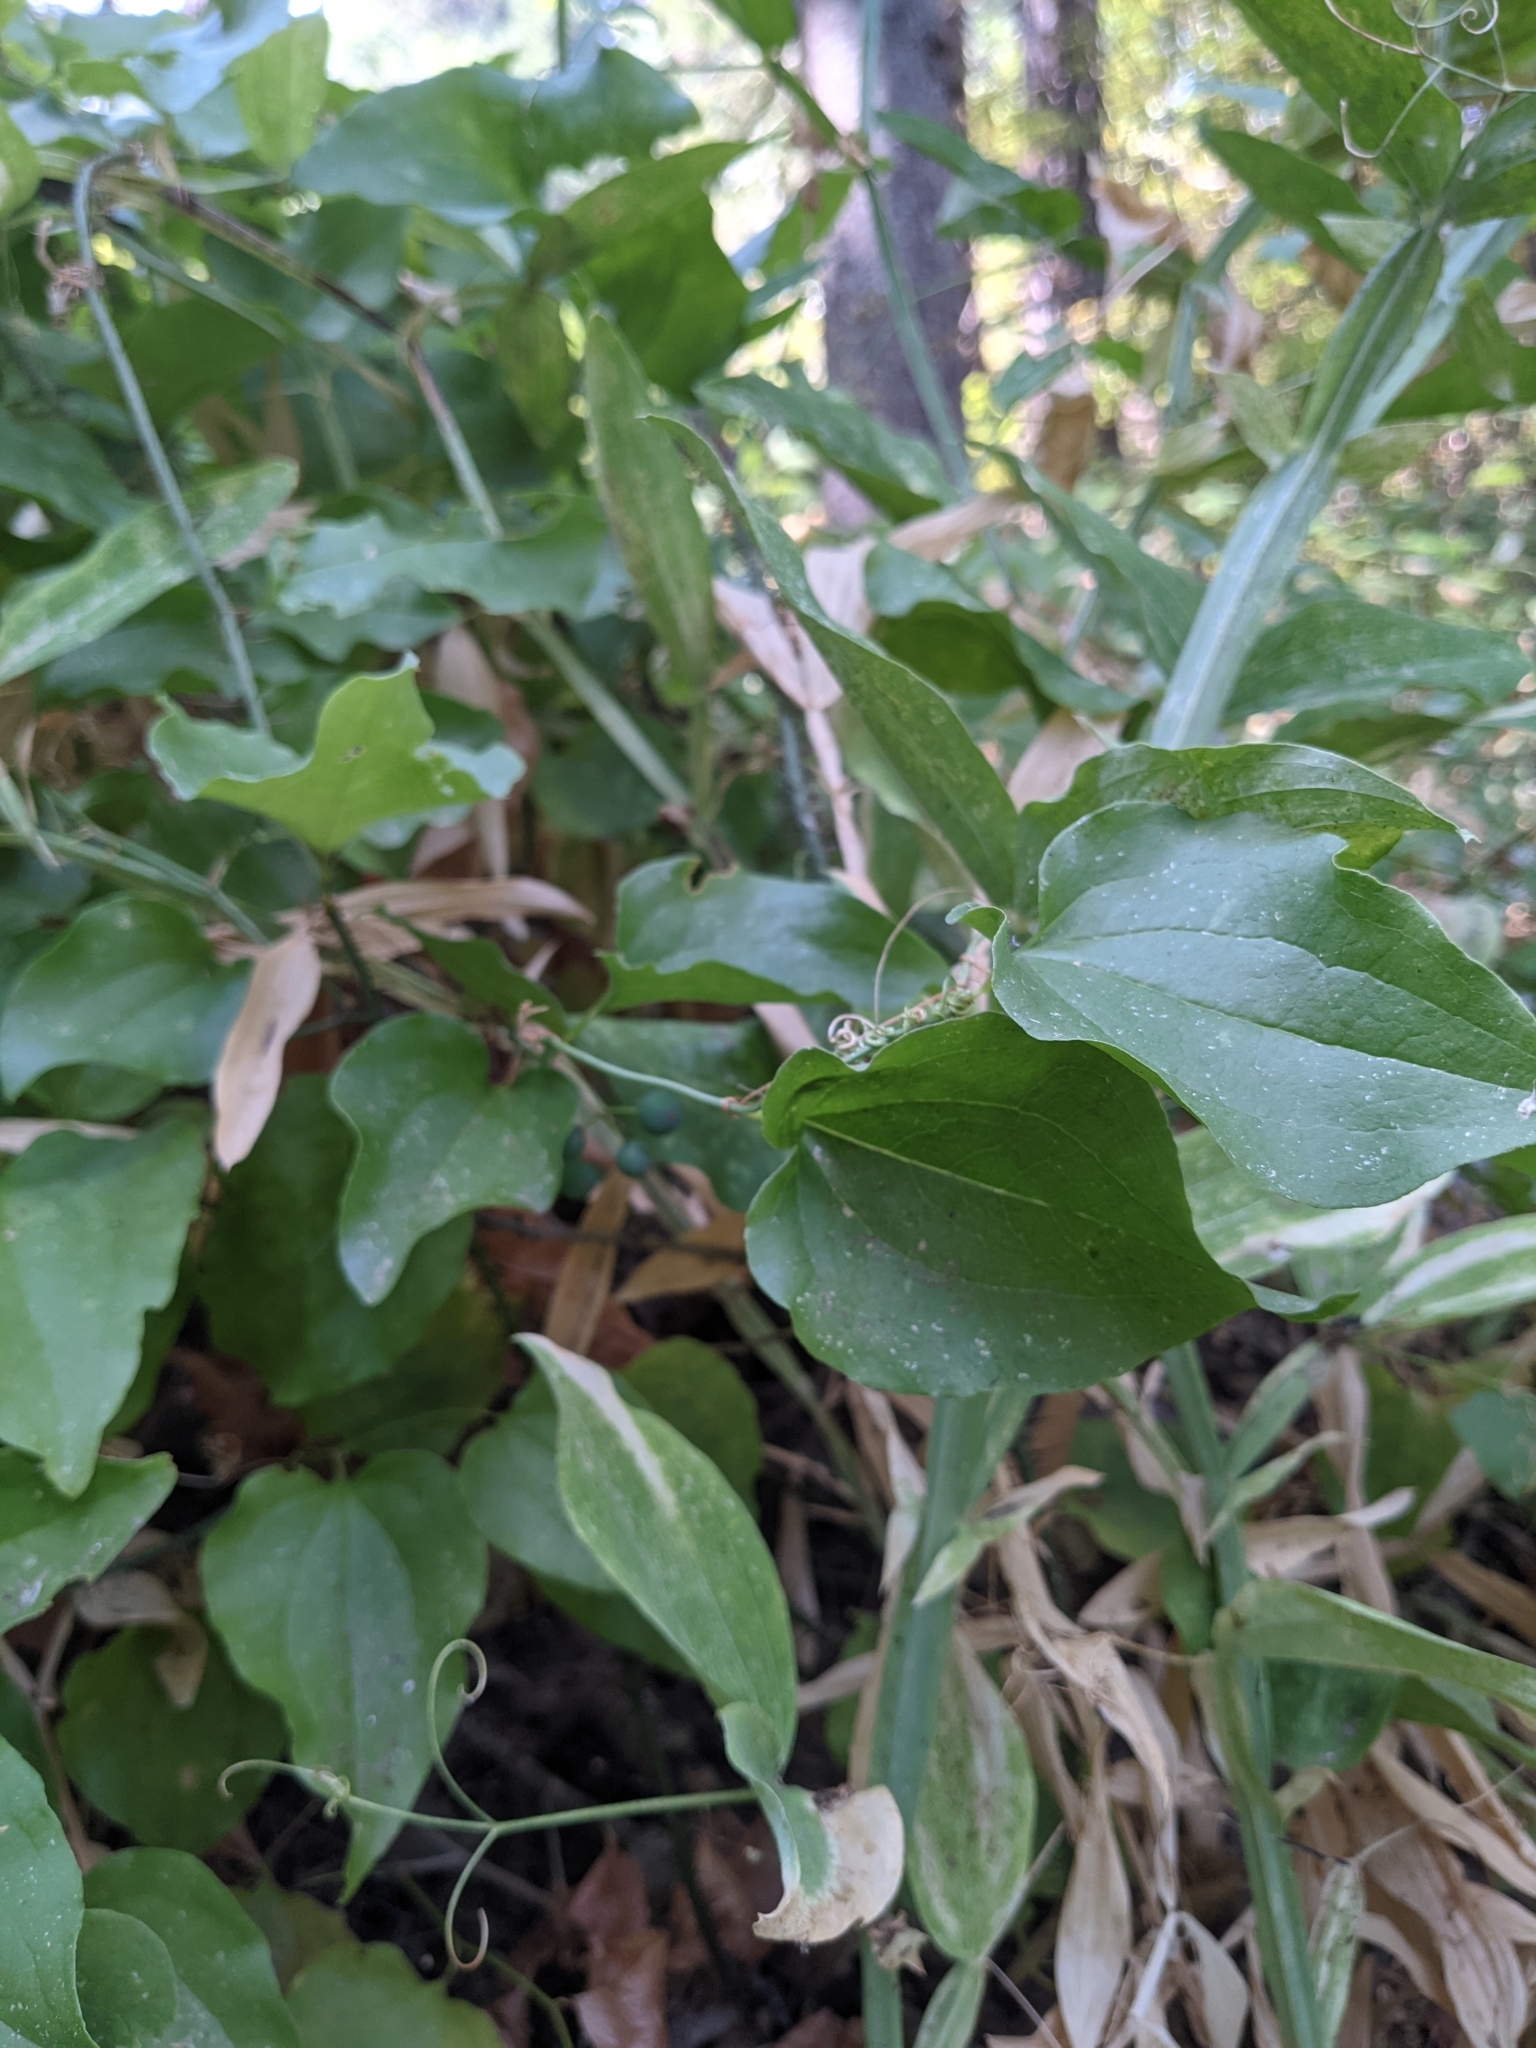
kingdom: Plantae
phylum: Tracheophyta
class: Liliopsida
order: Liliales
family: Smilacaceae
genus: Smilax
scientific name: Smilax californica
